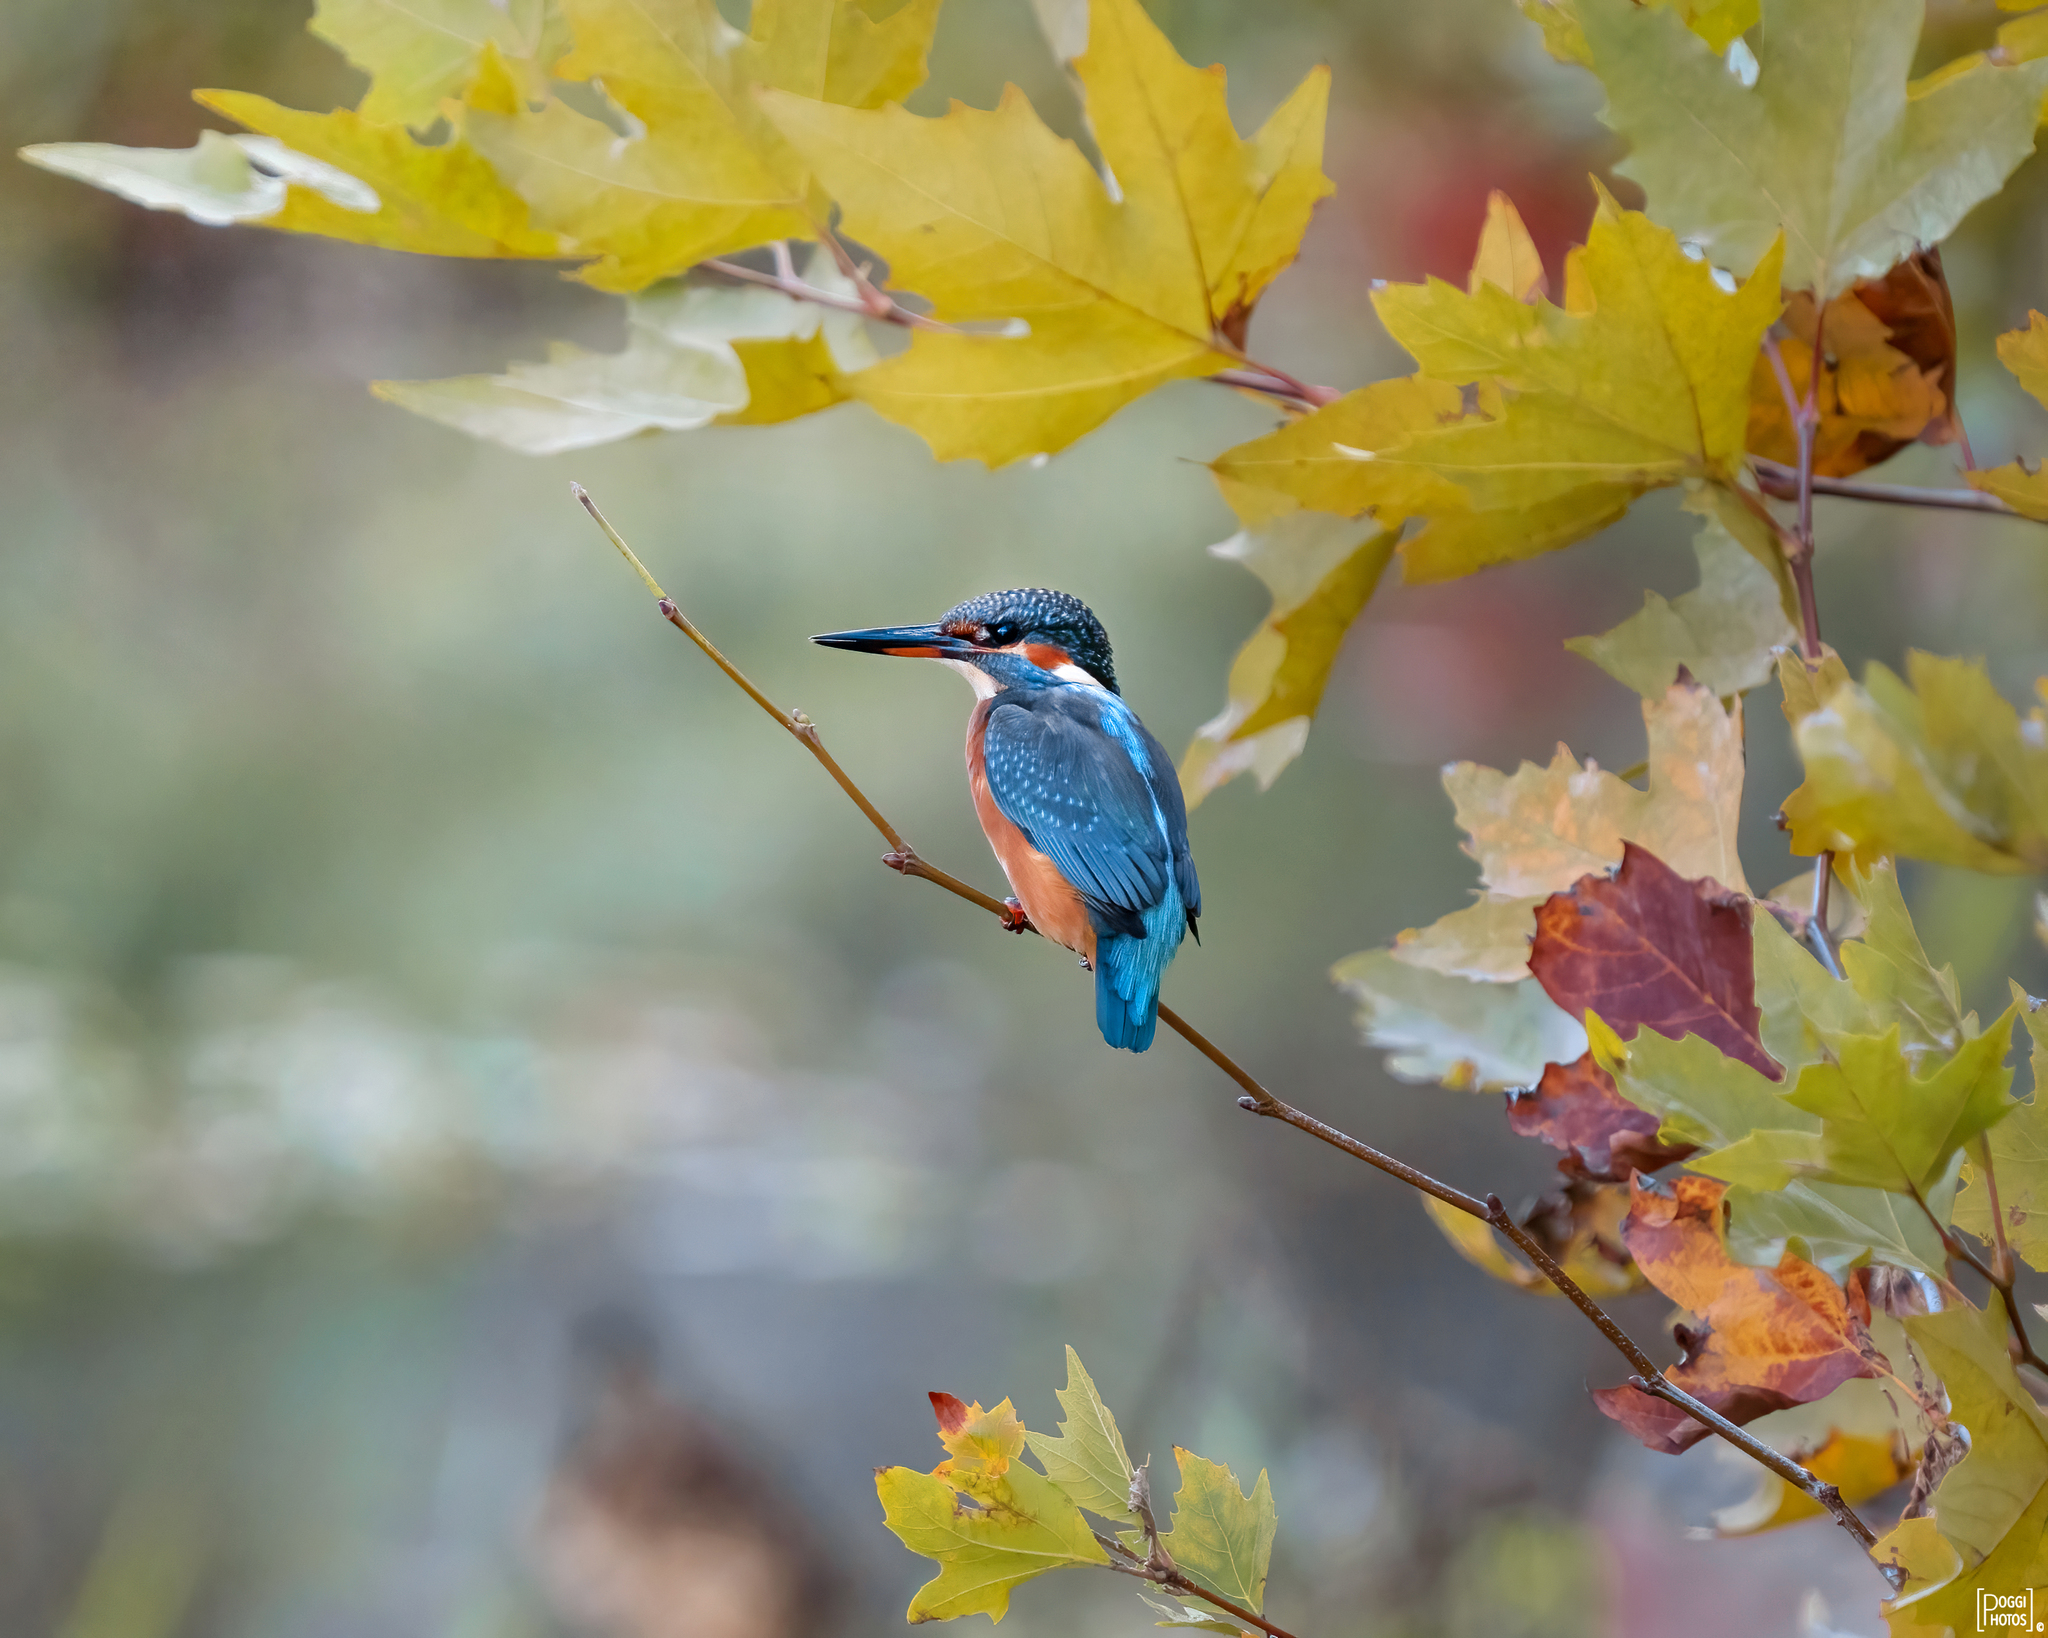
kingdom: Animalia
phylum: Chordata
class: Aves
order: Coraciiformes
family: Alcedinidae
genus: Alcedo
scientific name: Alcedo atthis
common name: Common kingfisher
